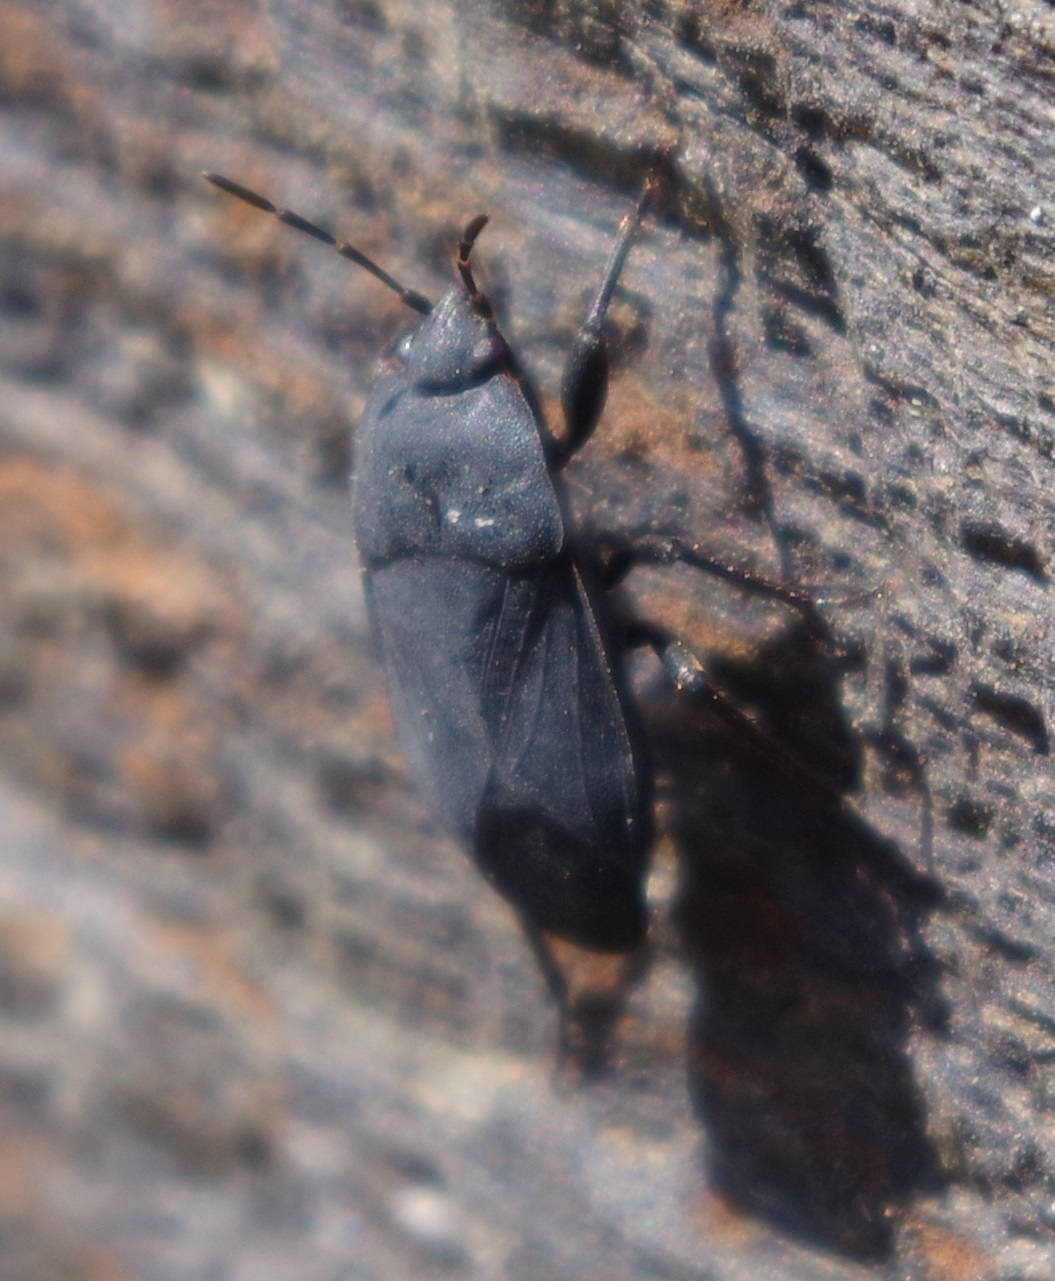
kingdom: Animalia
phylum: Arthropoda
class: Insecta
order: Hemiptera
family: Rhyparochromidae
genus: Aellopus
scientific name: Aellopus atratus
